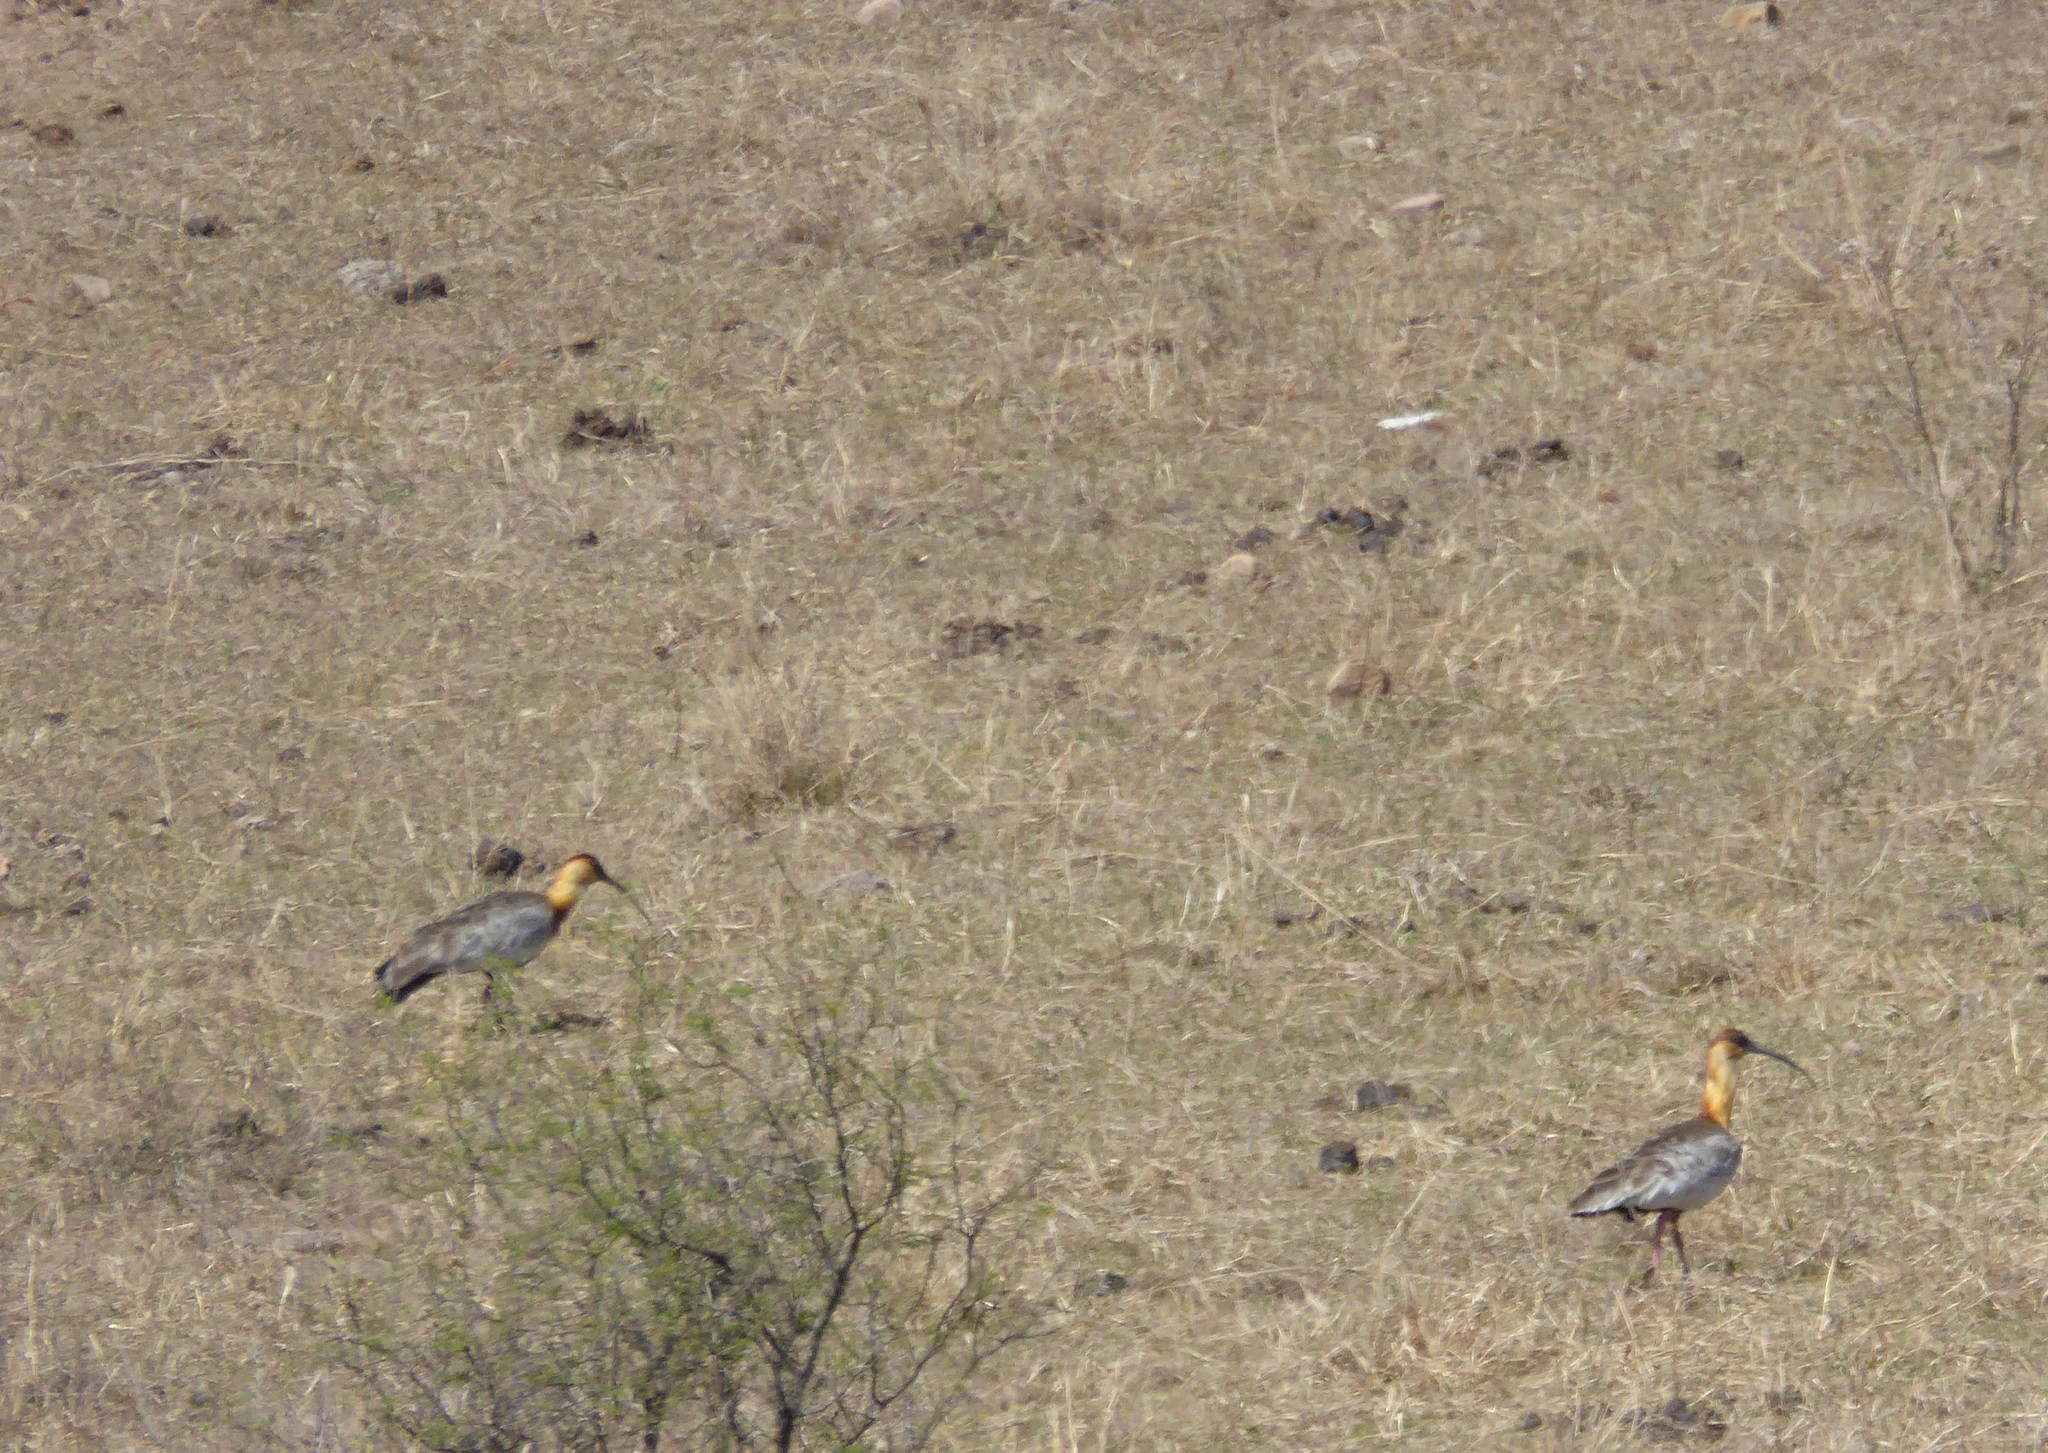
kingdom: Animalia
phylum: Chordata
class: Aves
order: Pelecaniformes
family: Threskiornithidae
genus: Theristicus
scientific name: Theristicus caudatus
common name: Buff-necked ibis
